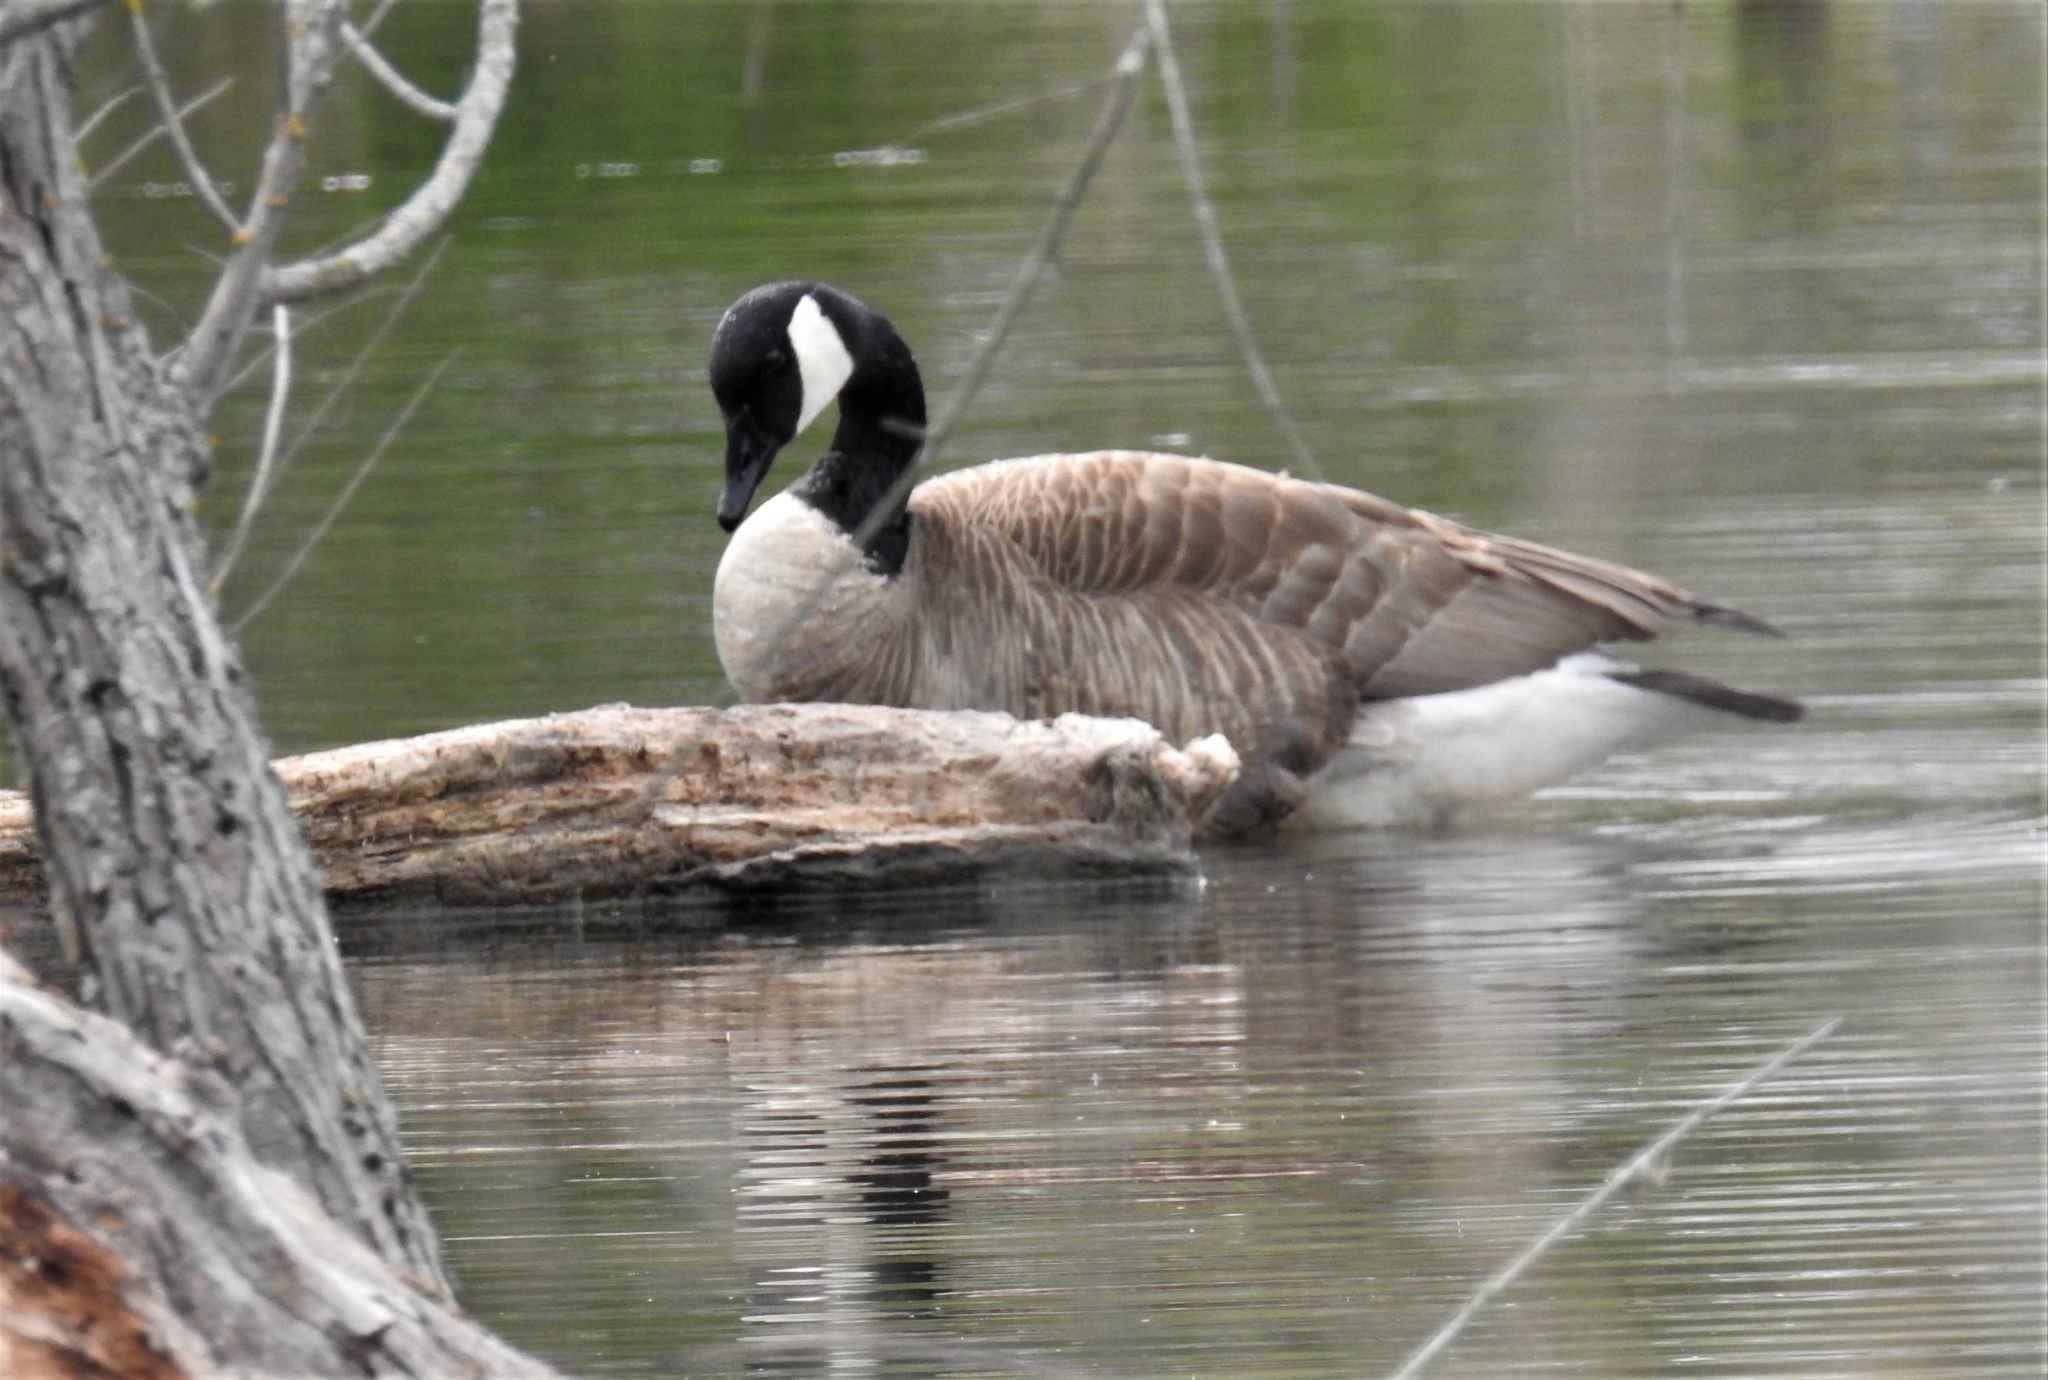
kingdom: Animalia
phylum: Chordata
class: Aves
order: Anseriformes
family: Anatidae
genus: Branta
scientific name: Branta canadensis
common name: Canada goose
